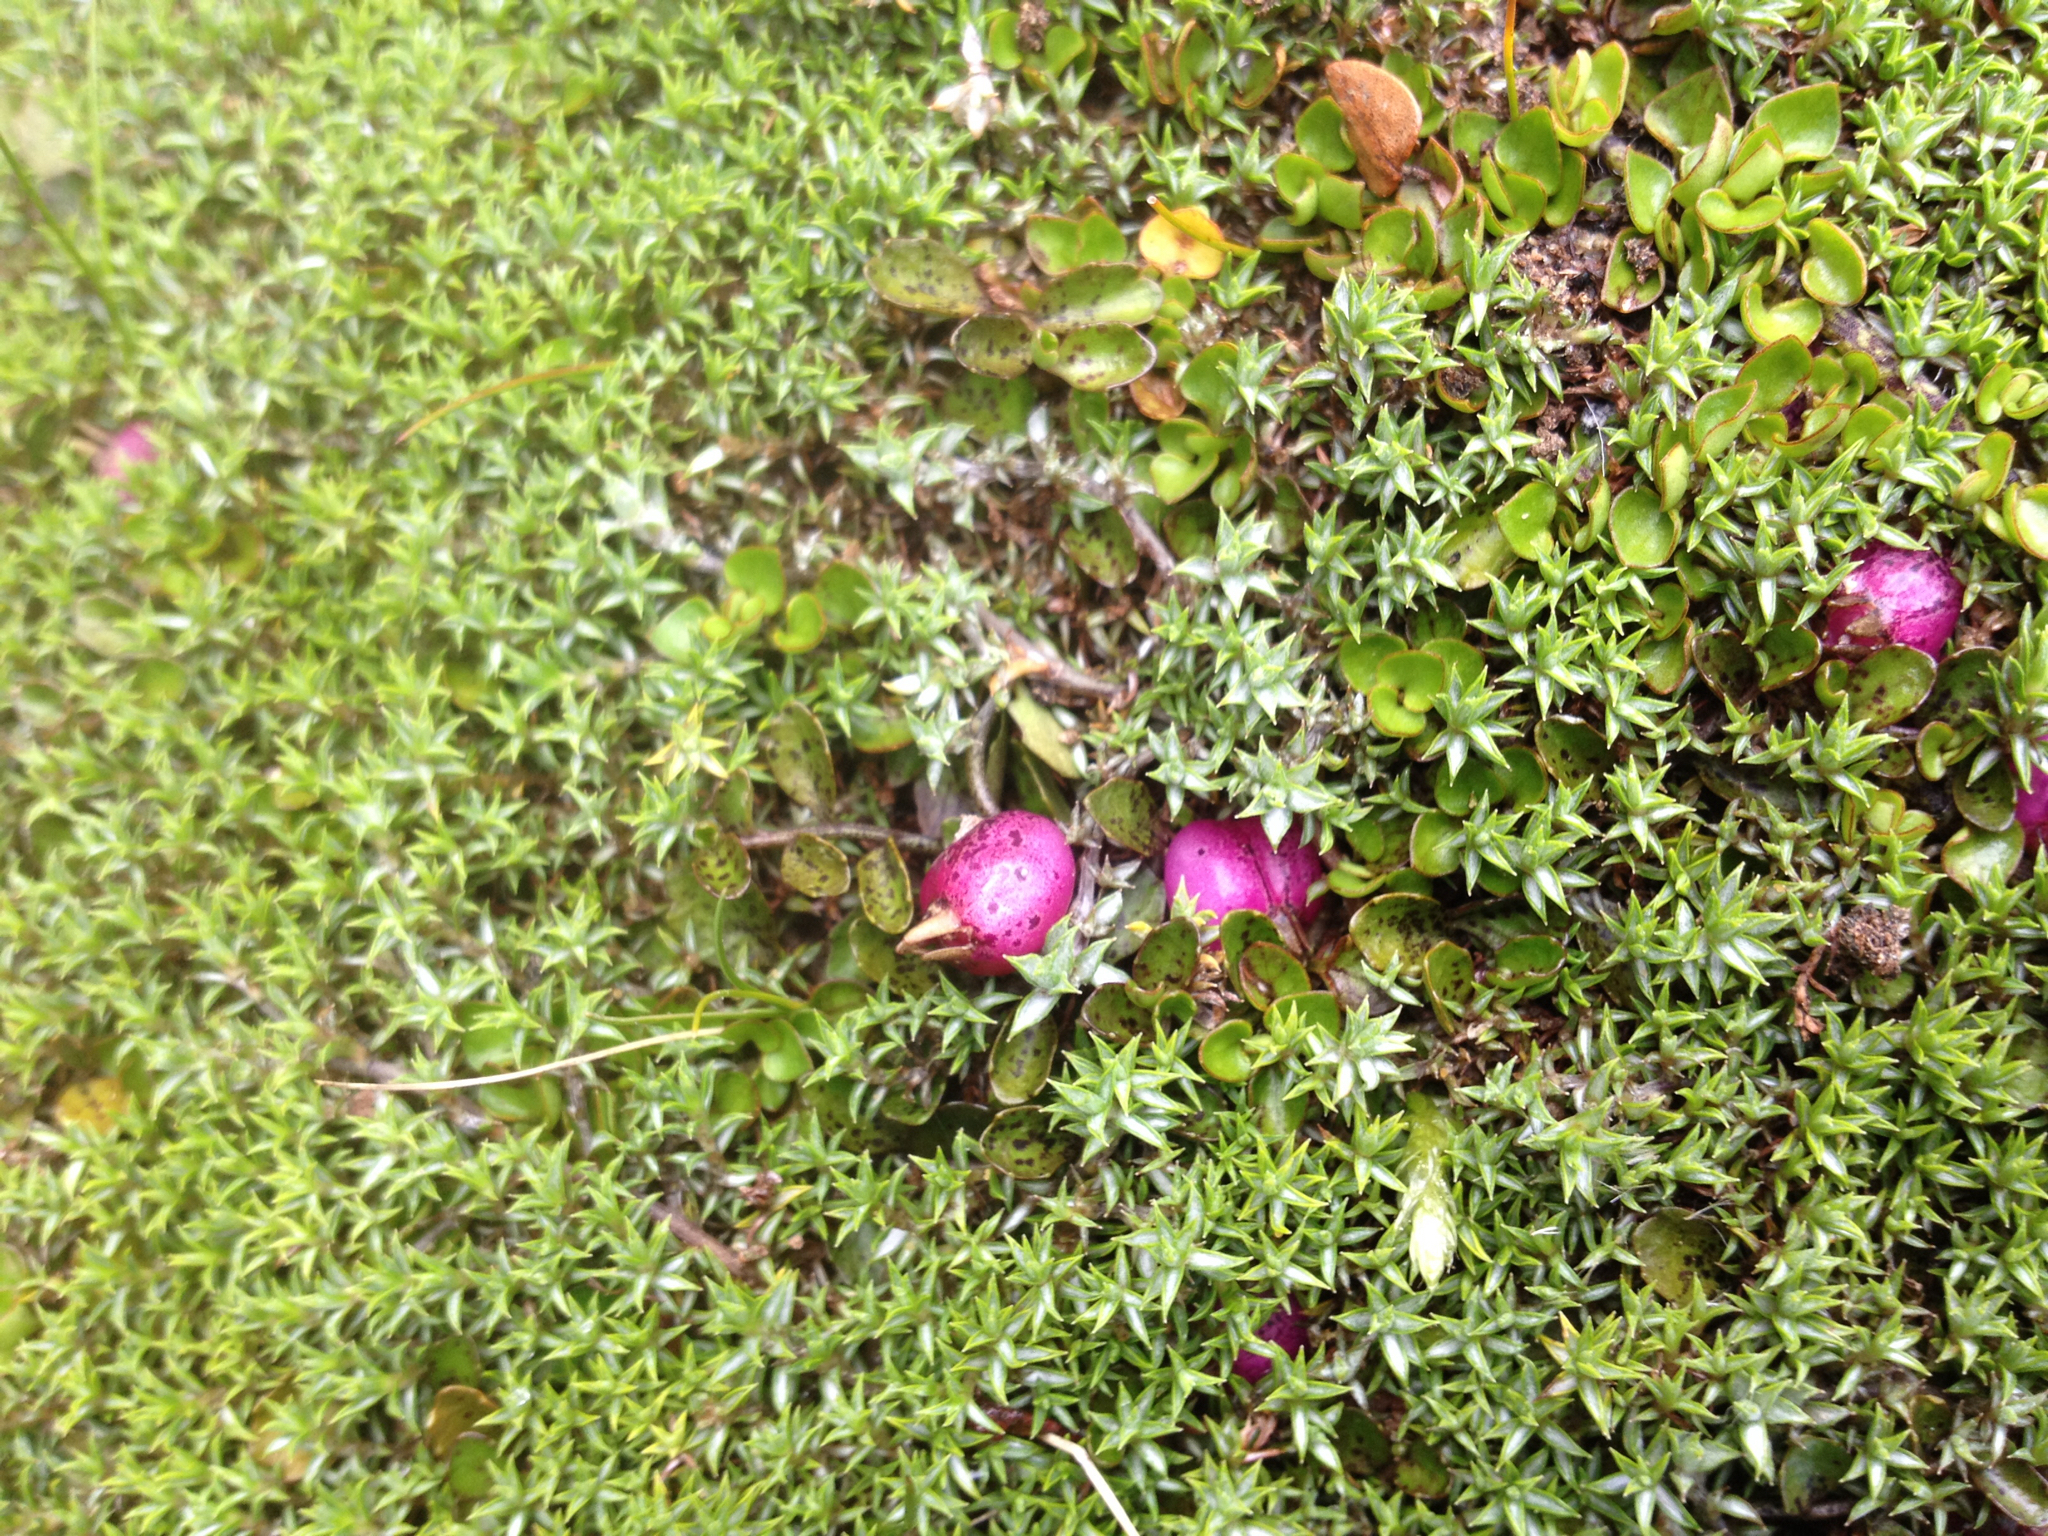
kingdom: Plantae
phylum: Tracheophyta
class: Magnoliopsida
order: Asterales
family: Campanulaceae
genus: Lobelia
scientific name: Lobelia angulata
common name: Lawn lobelia
